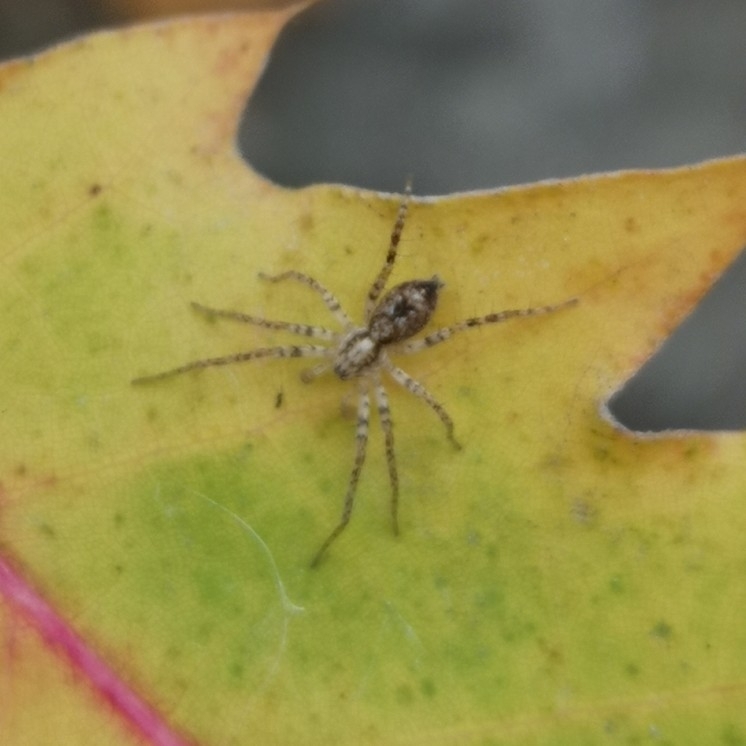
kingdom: Animalia
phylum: Arthropoda
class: Arachnida
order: Araneae
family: Anyphaenidae
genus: Anyphaena
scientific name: Anyphaena accentuata
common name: Buzzing spider
